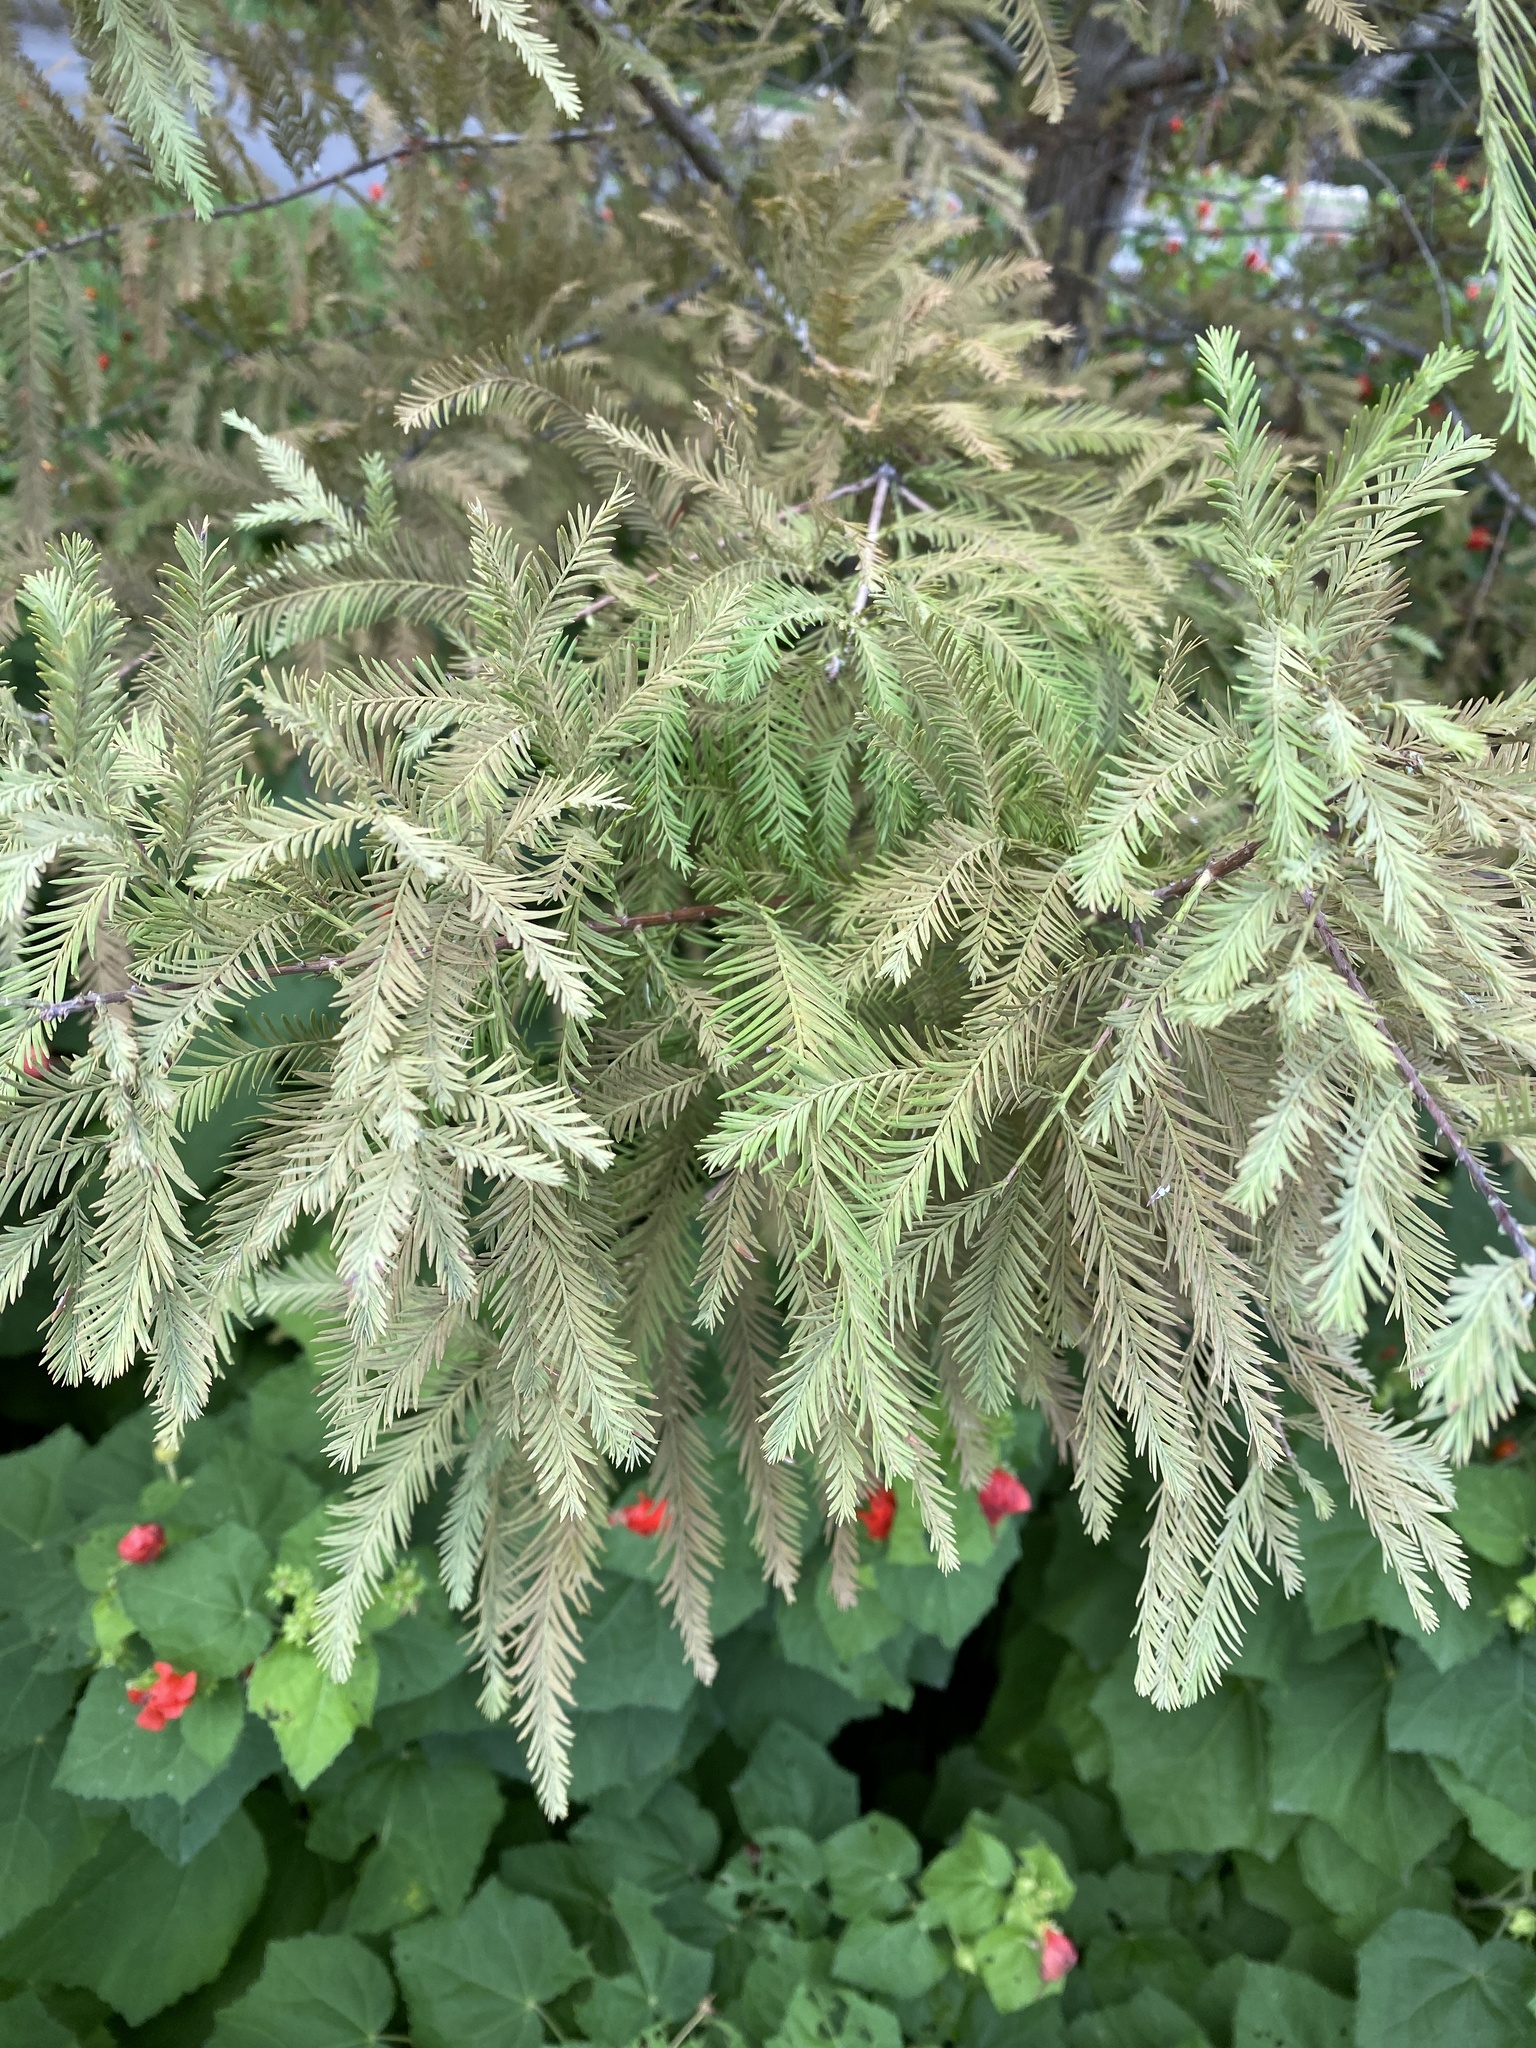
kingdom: Plantae
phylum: Tracheophyta
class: Pinopsida
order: Pinales
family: Cupressaceae
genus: Taxodium
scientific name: Taxodium distichum
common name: Bald cypress
